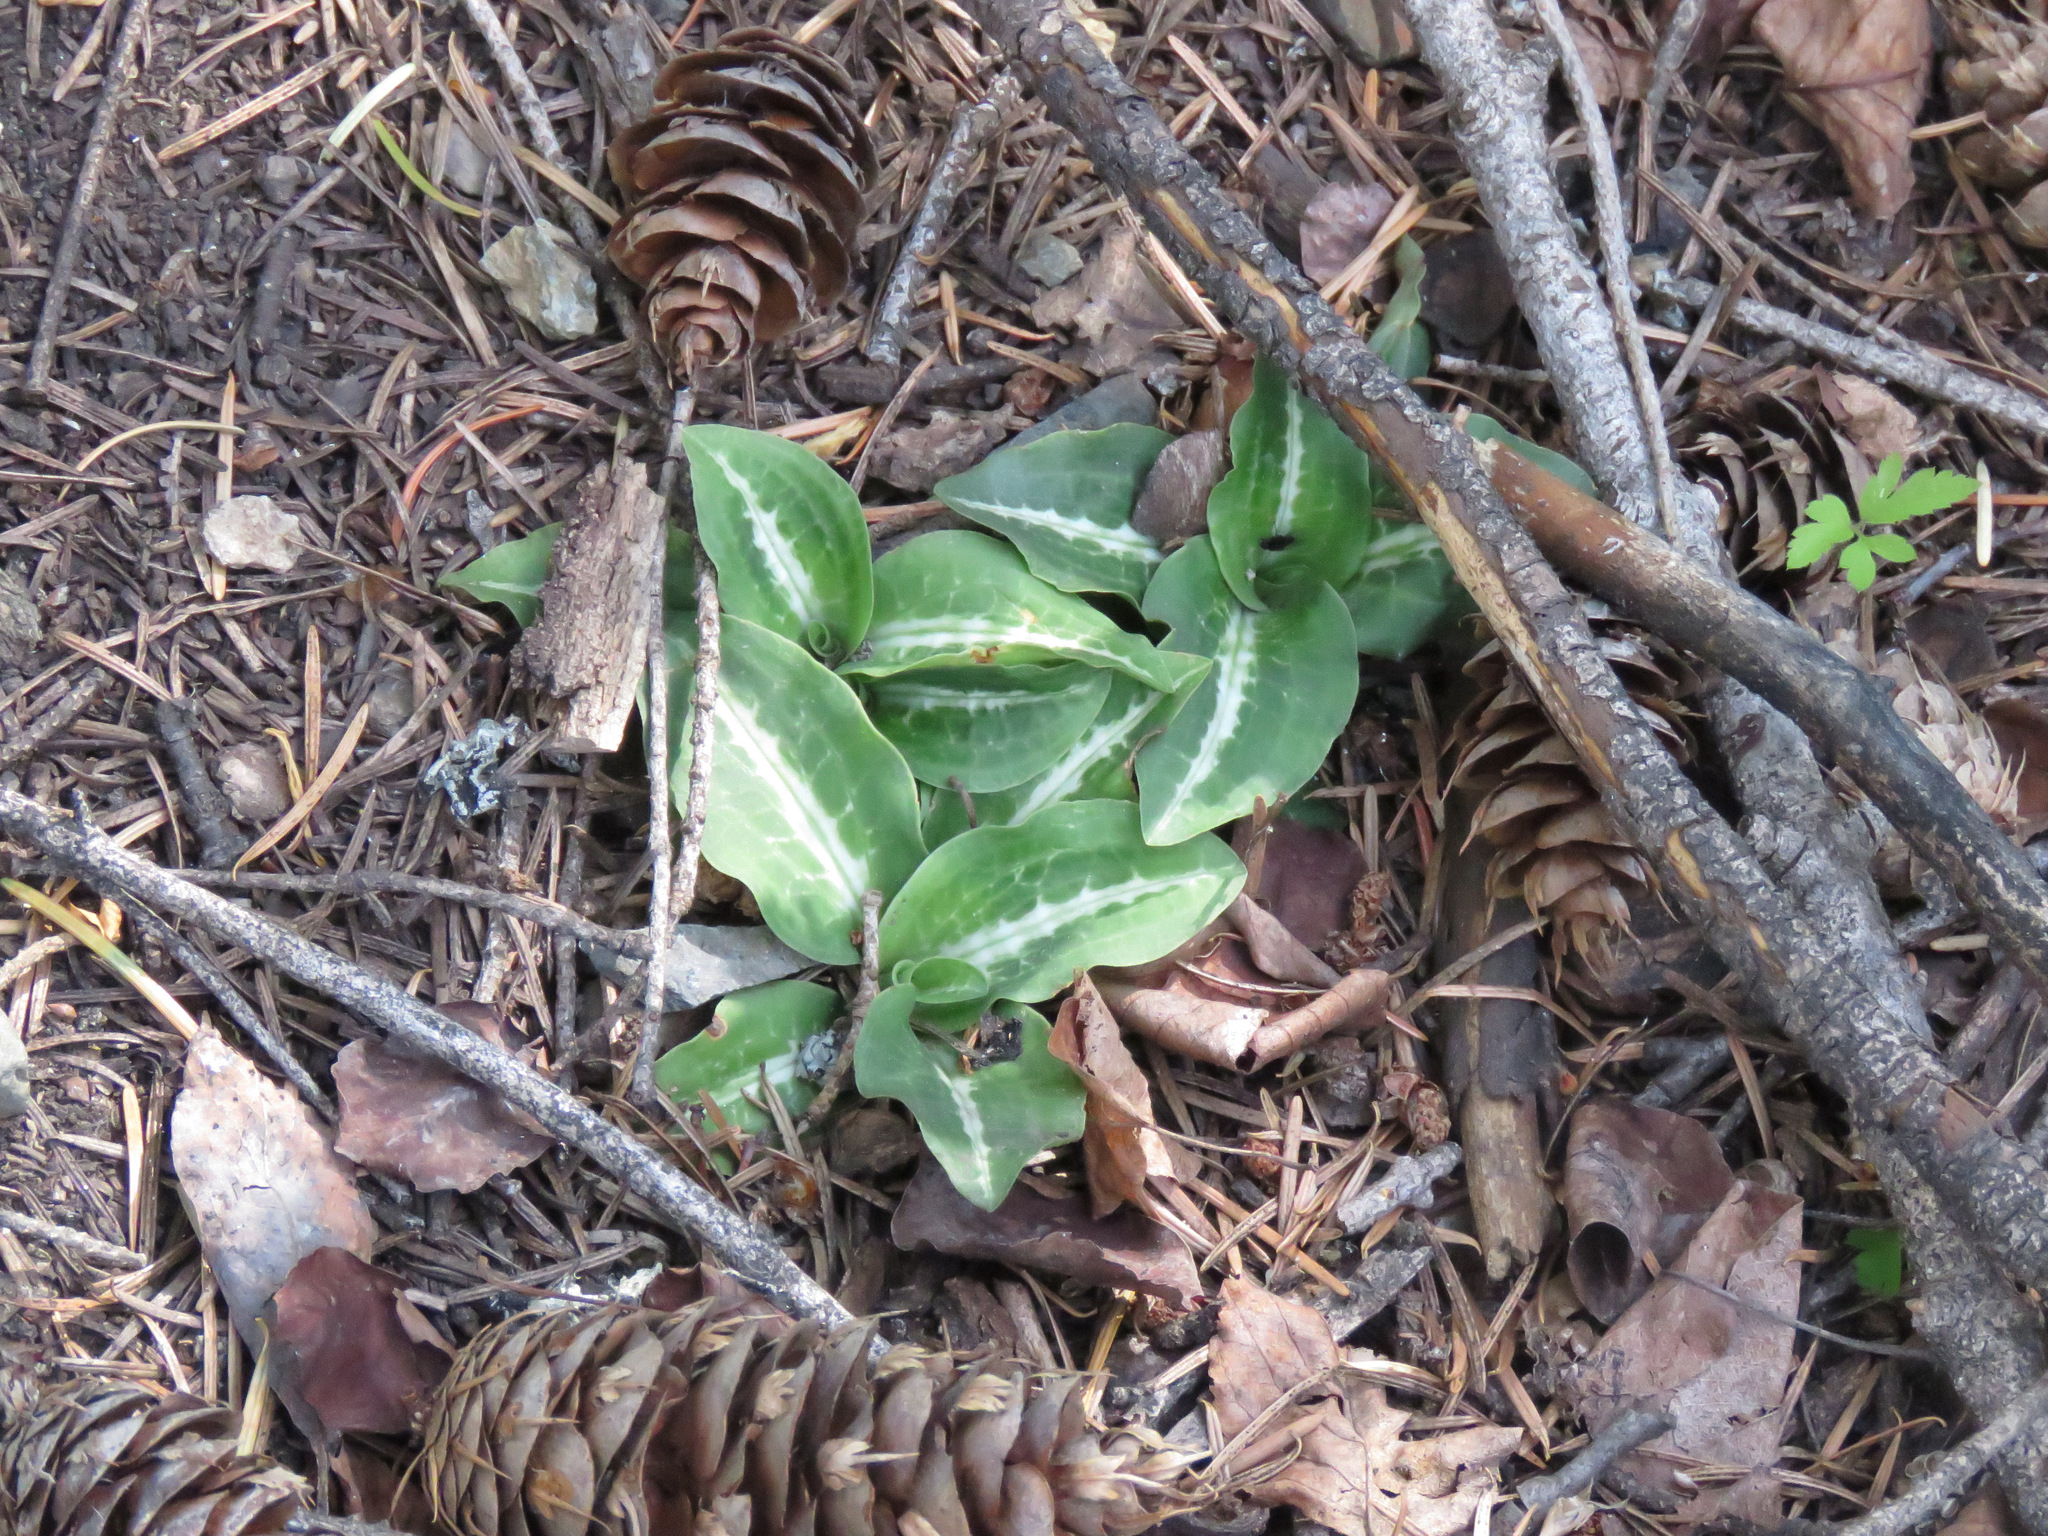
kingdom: Plantae
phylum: Tracheophyta
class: Liliopsida
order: Asparagales
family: Orchidaceae
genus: Goodyera
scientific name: Goodyera oblongifolia
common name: Giant rattlesnake-plantain
